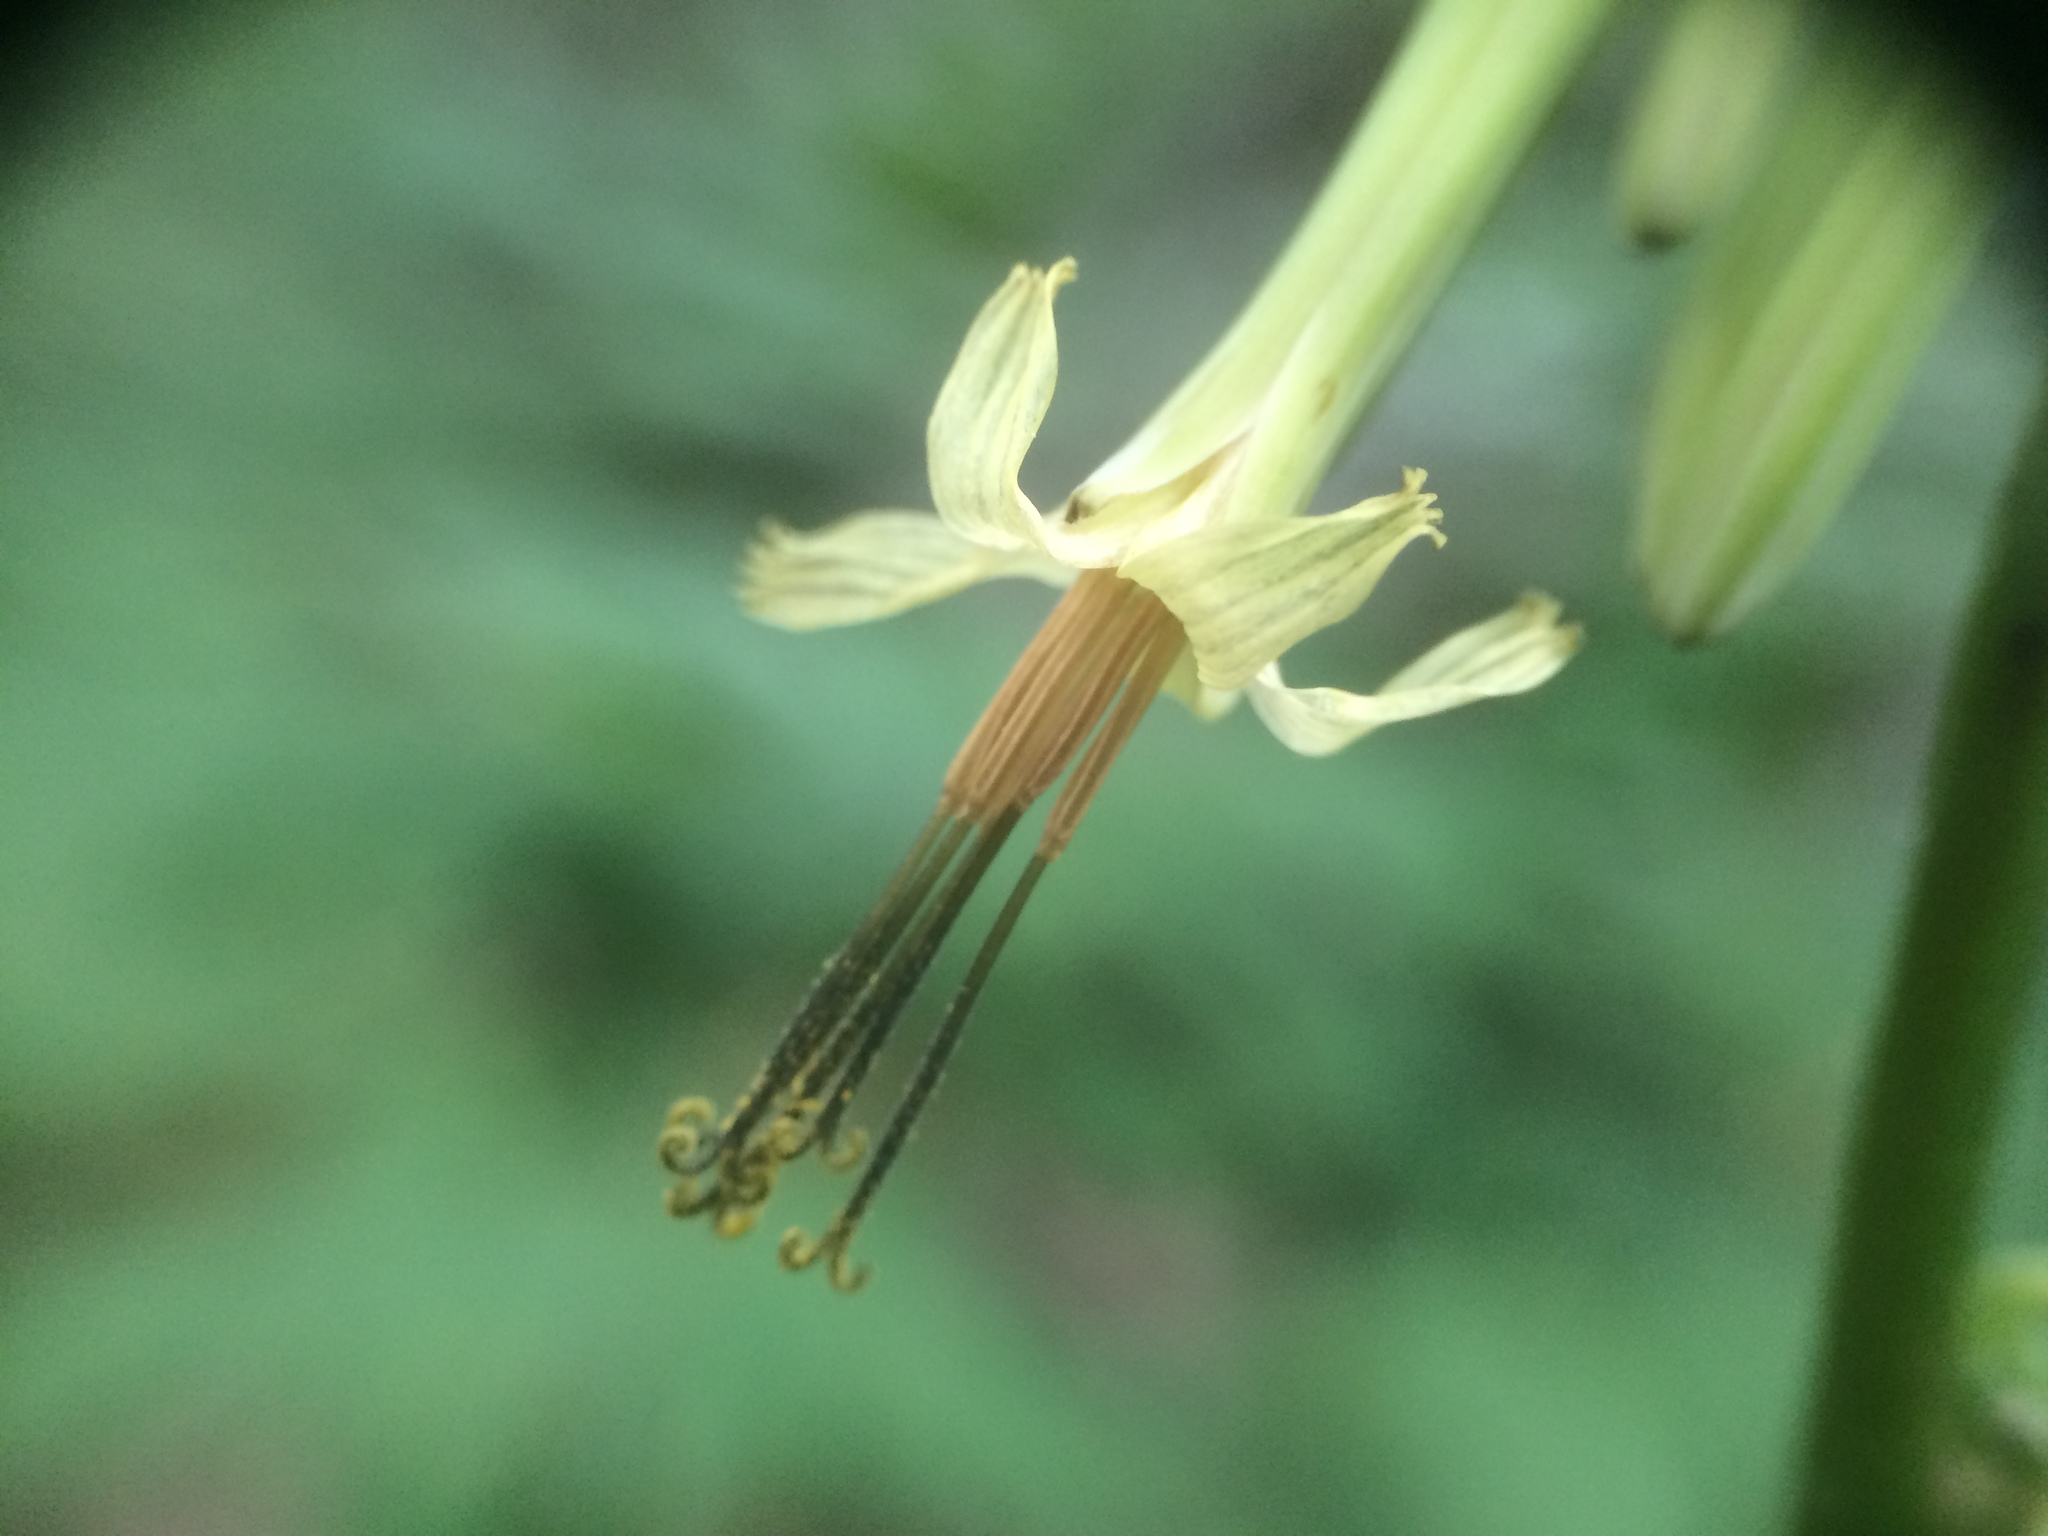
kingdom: Plantae
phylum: Tracheophyta
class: Magnoliopsida
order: Asterales
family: Asteraceae
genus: Nabalus
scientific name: Nabalus altissima
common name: Tall rattlesnakeroot
